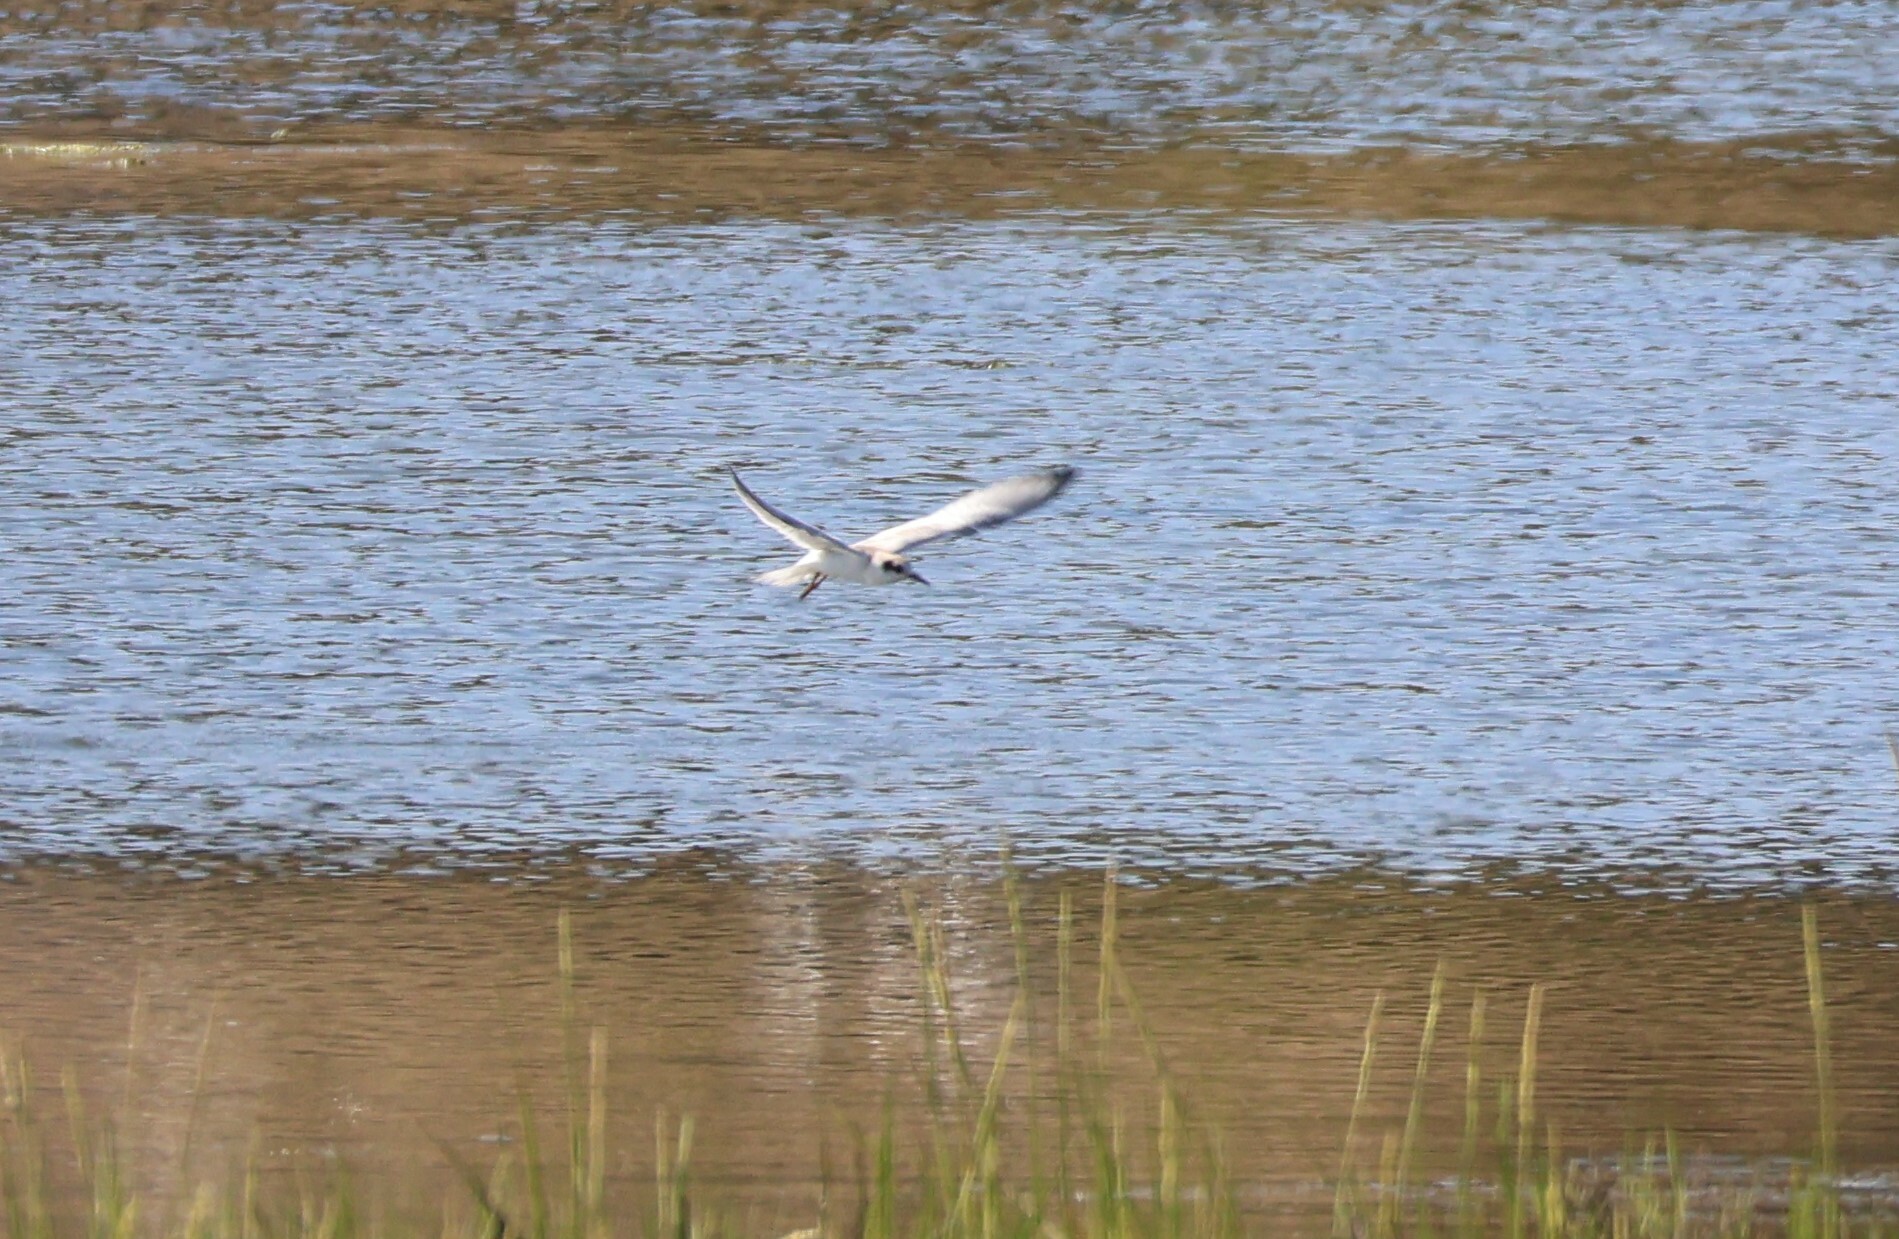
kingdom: Animalia
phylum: Chordata
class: Aves
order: Charadriiformes
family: Laridae
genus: Sterna
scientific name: Sterna forsteri
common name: Forster's tern
